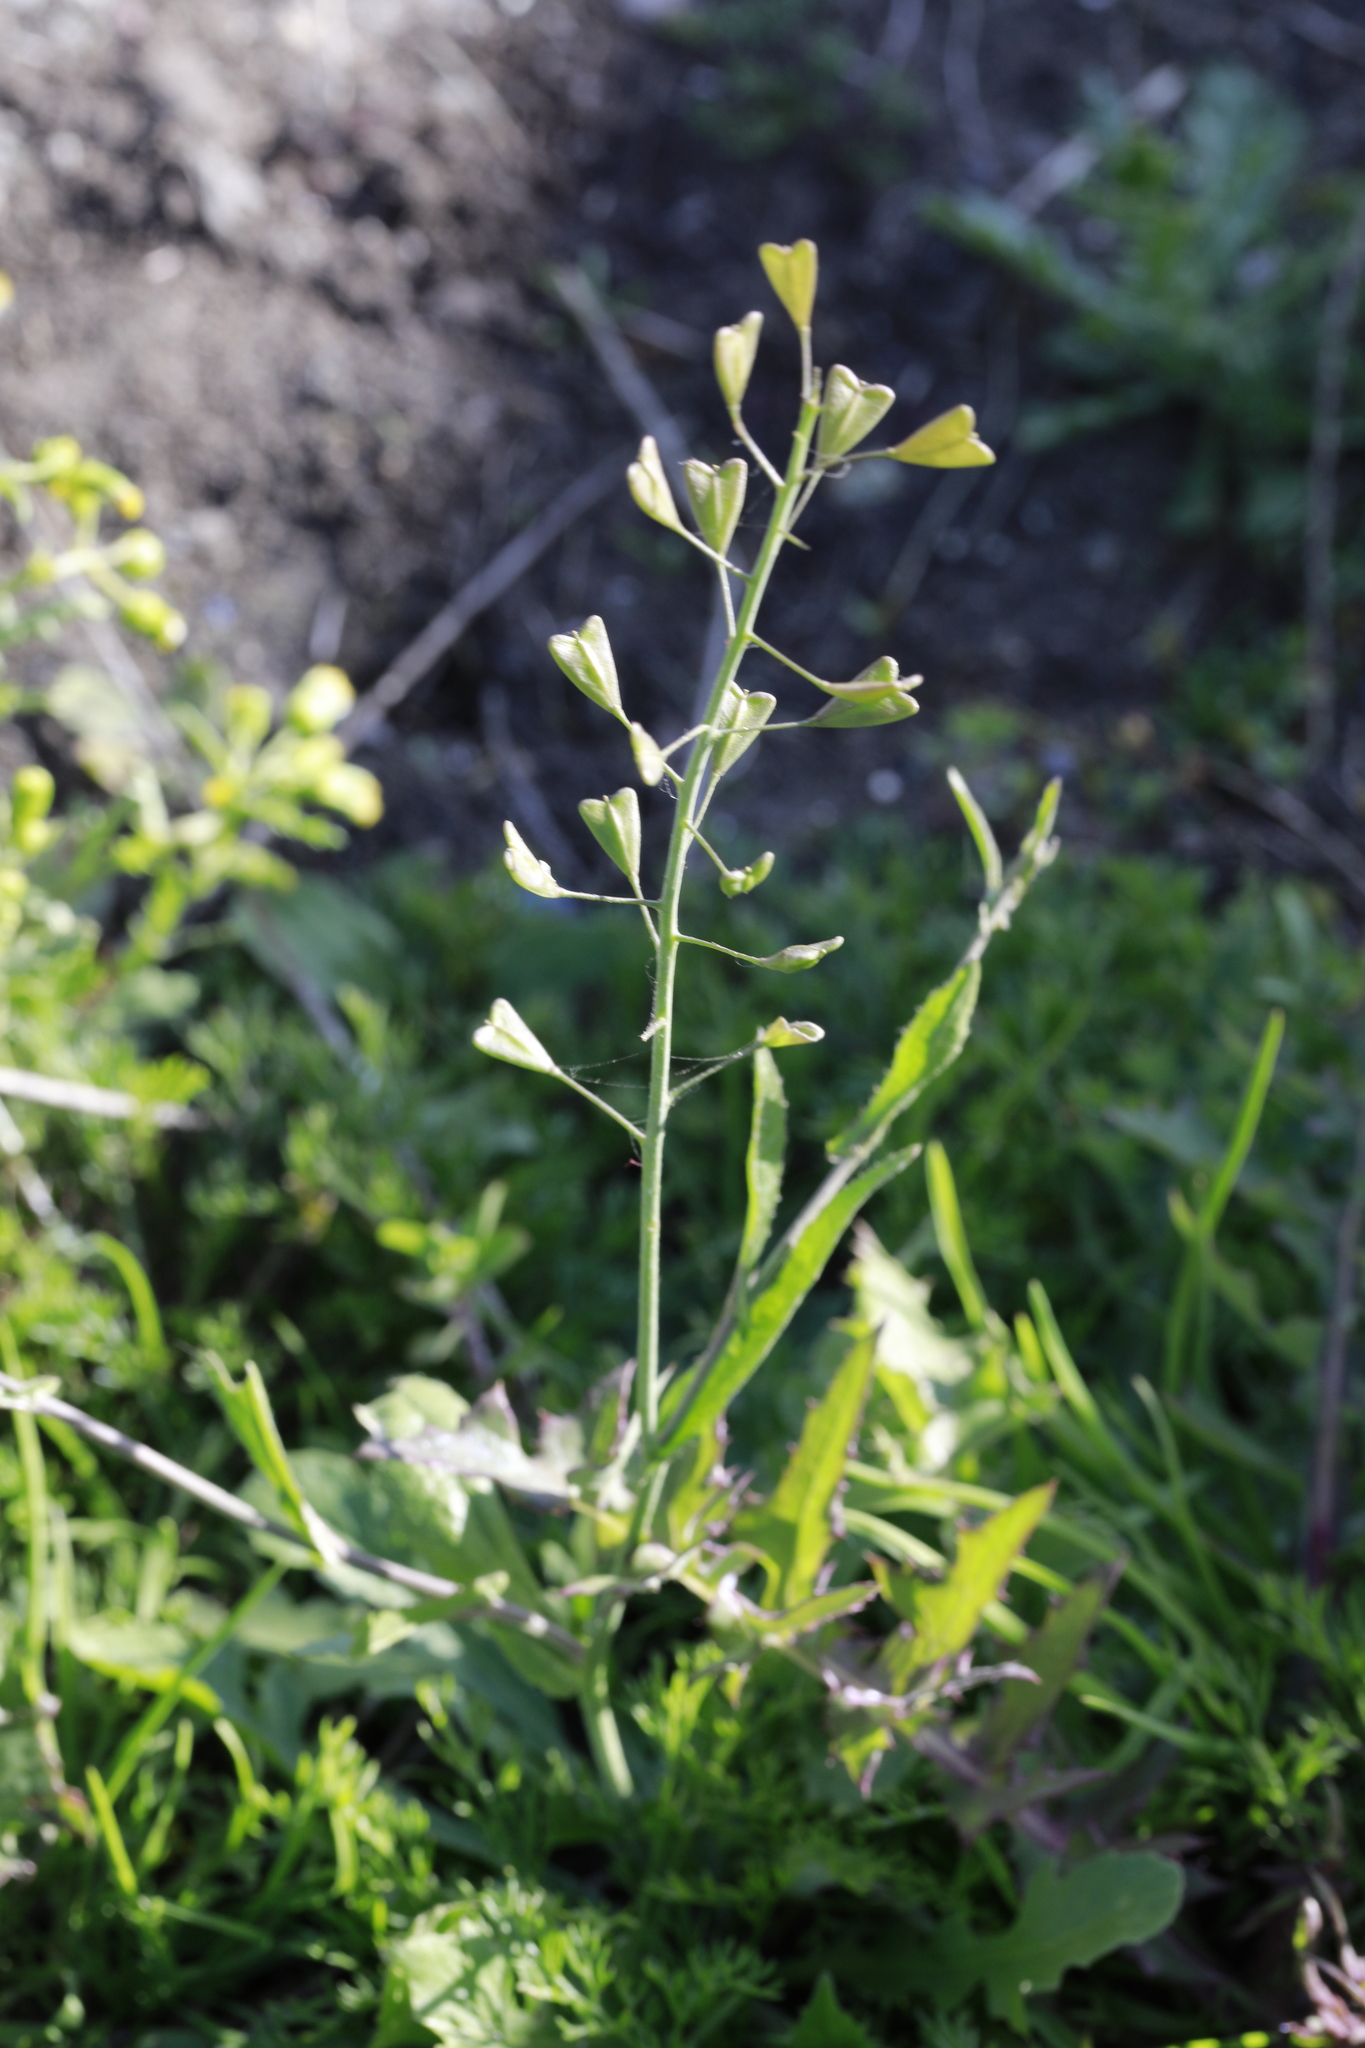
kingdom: Plantae
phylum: Tracheophyta
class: Magnoliopsida
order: Brassicales
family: Brassicaceae
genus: Capsella
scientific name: Capsella bursa-pastoris
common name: Shepherd's purse
